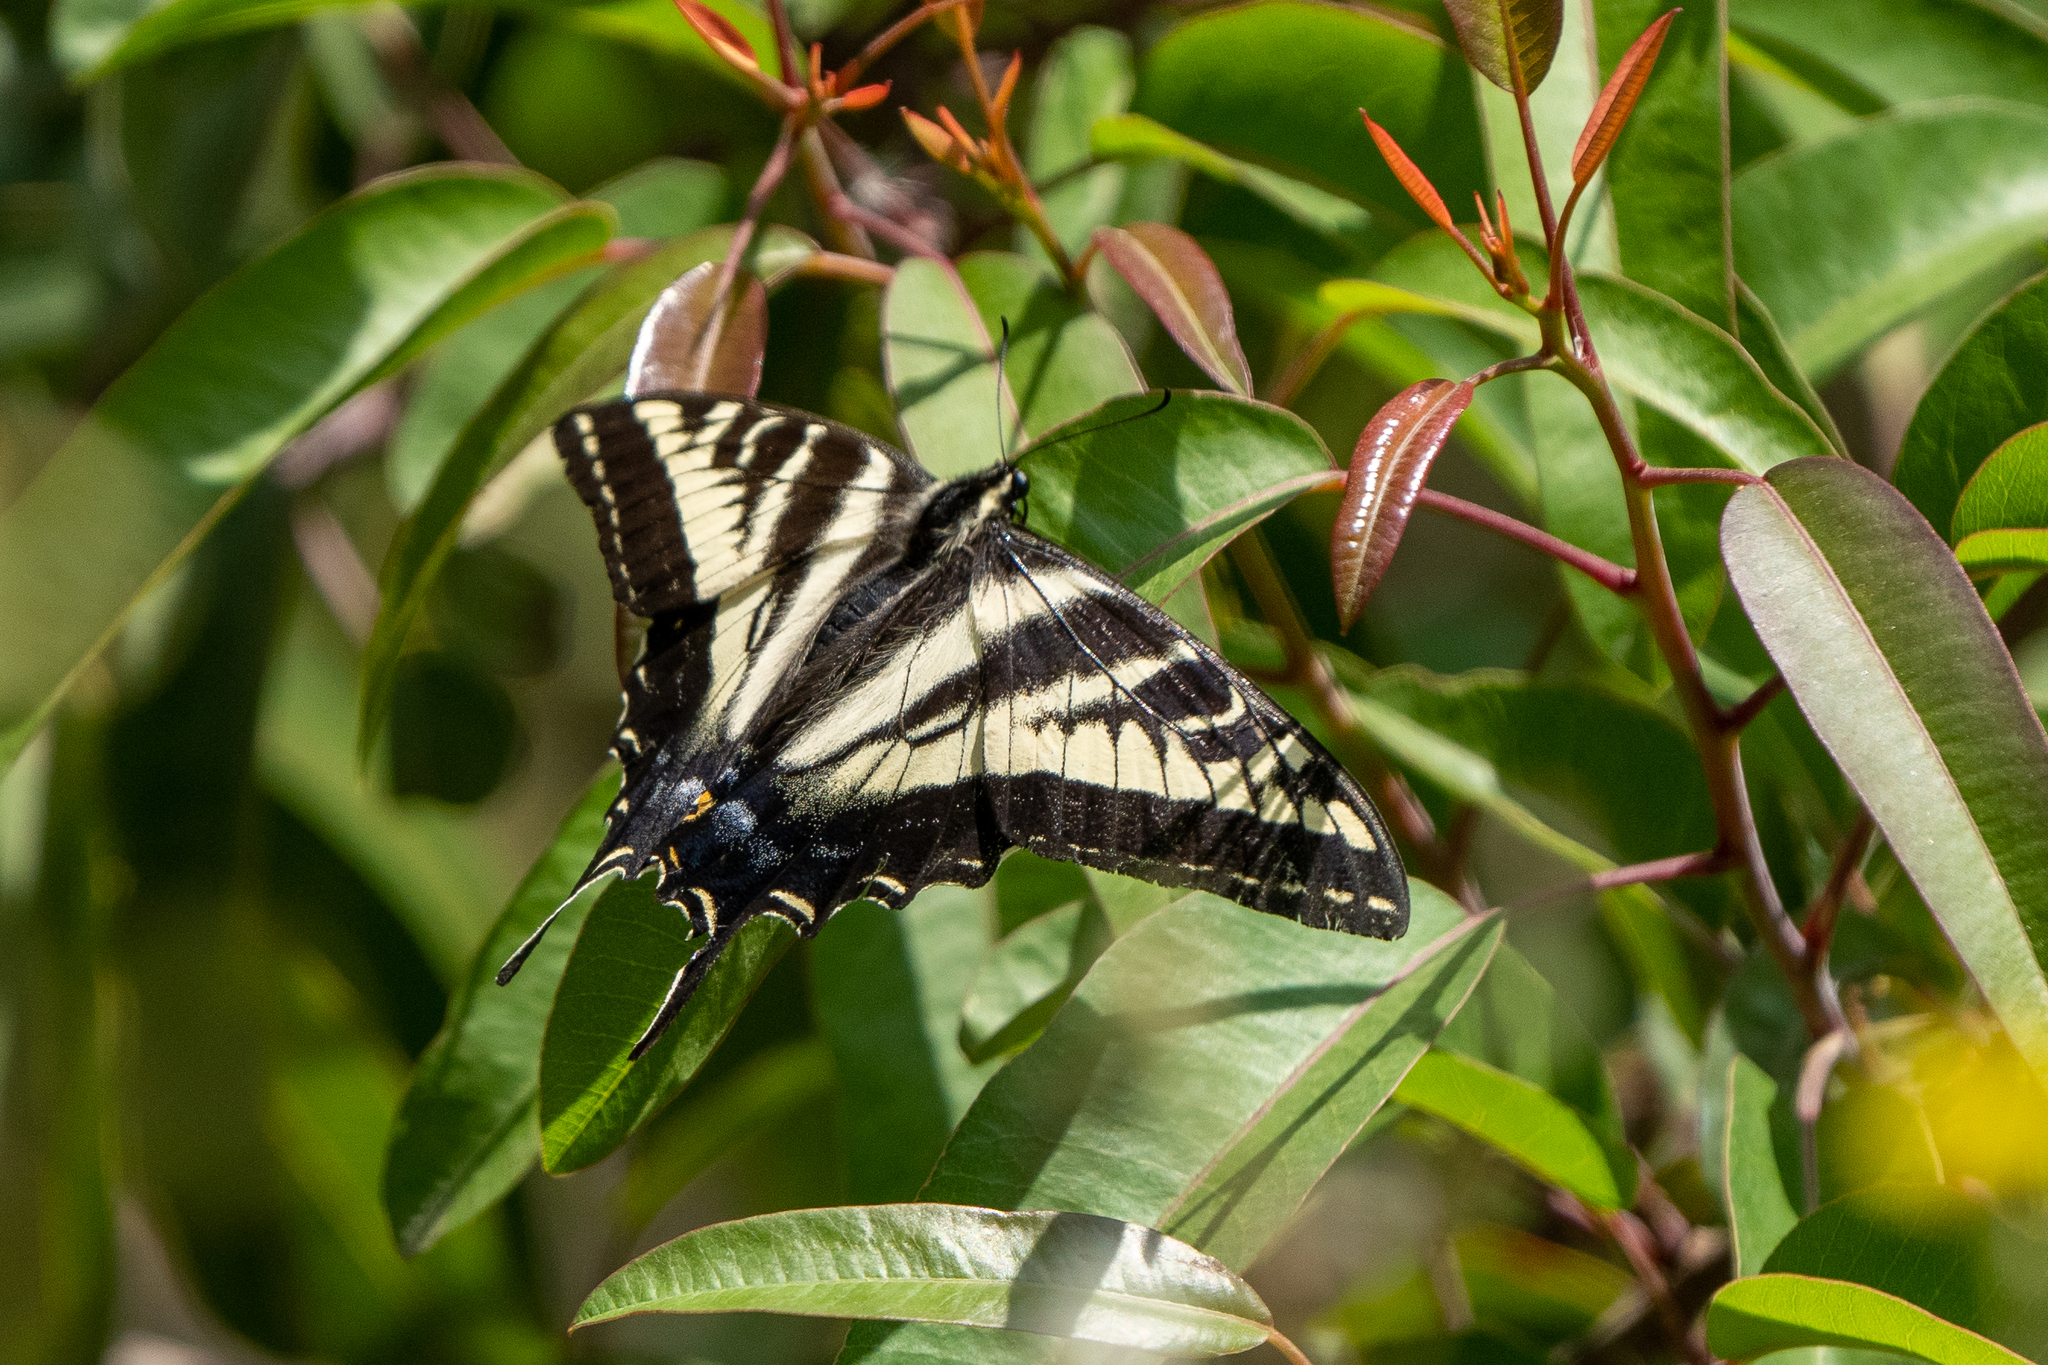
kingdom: Animalia
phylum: Arthropoda
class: Insecta
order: Lepidoptera
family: Papilionidae
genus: Papilio
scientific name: Papilio eurymedon
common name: Pale tiger swallowtail
